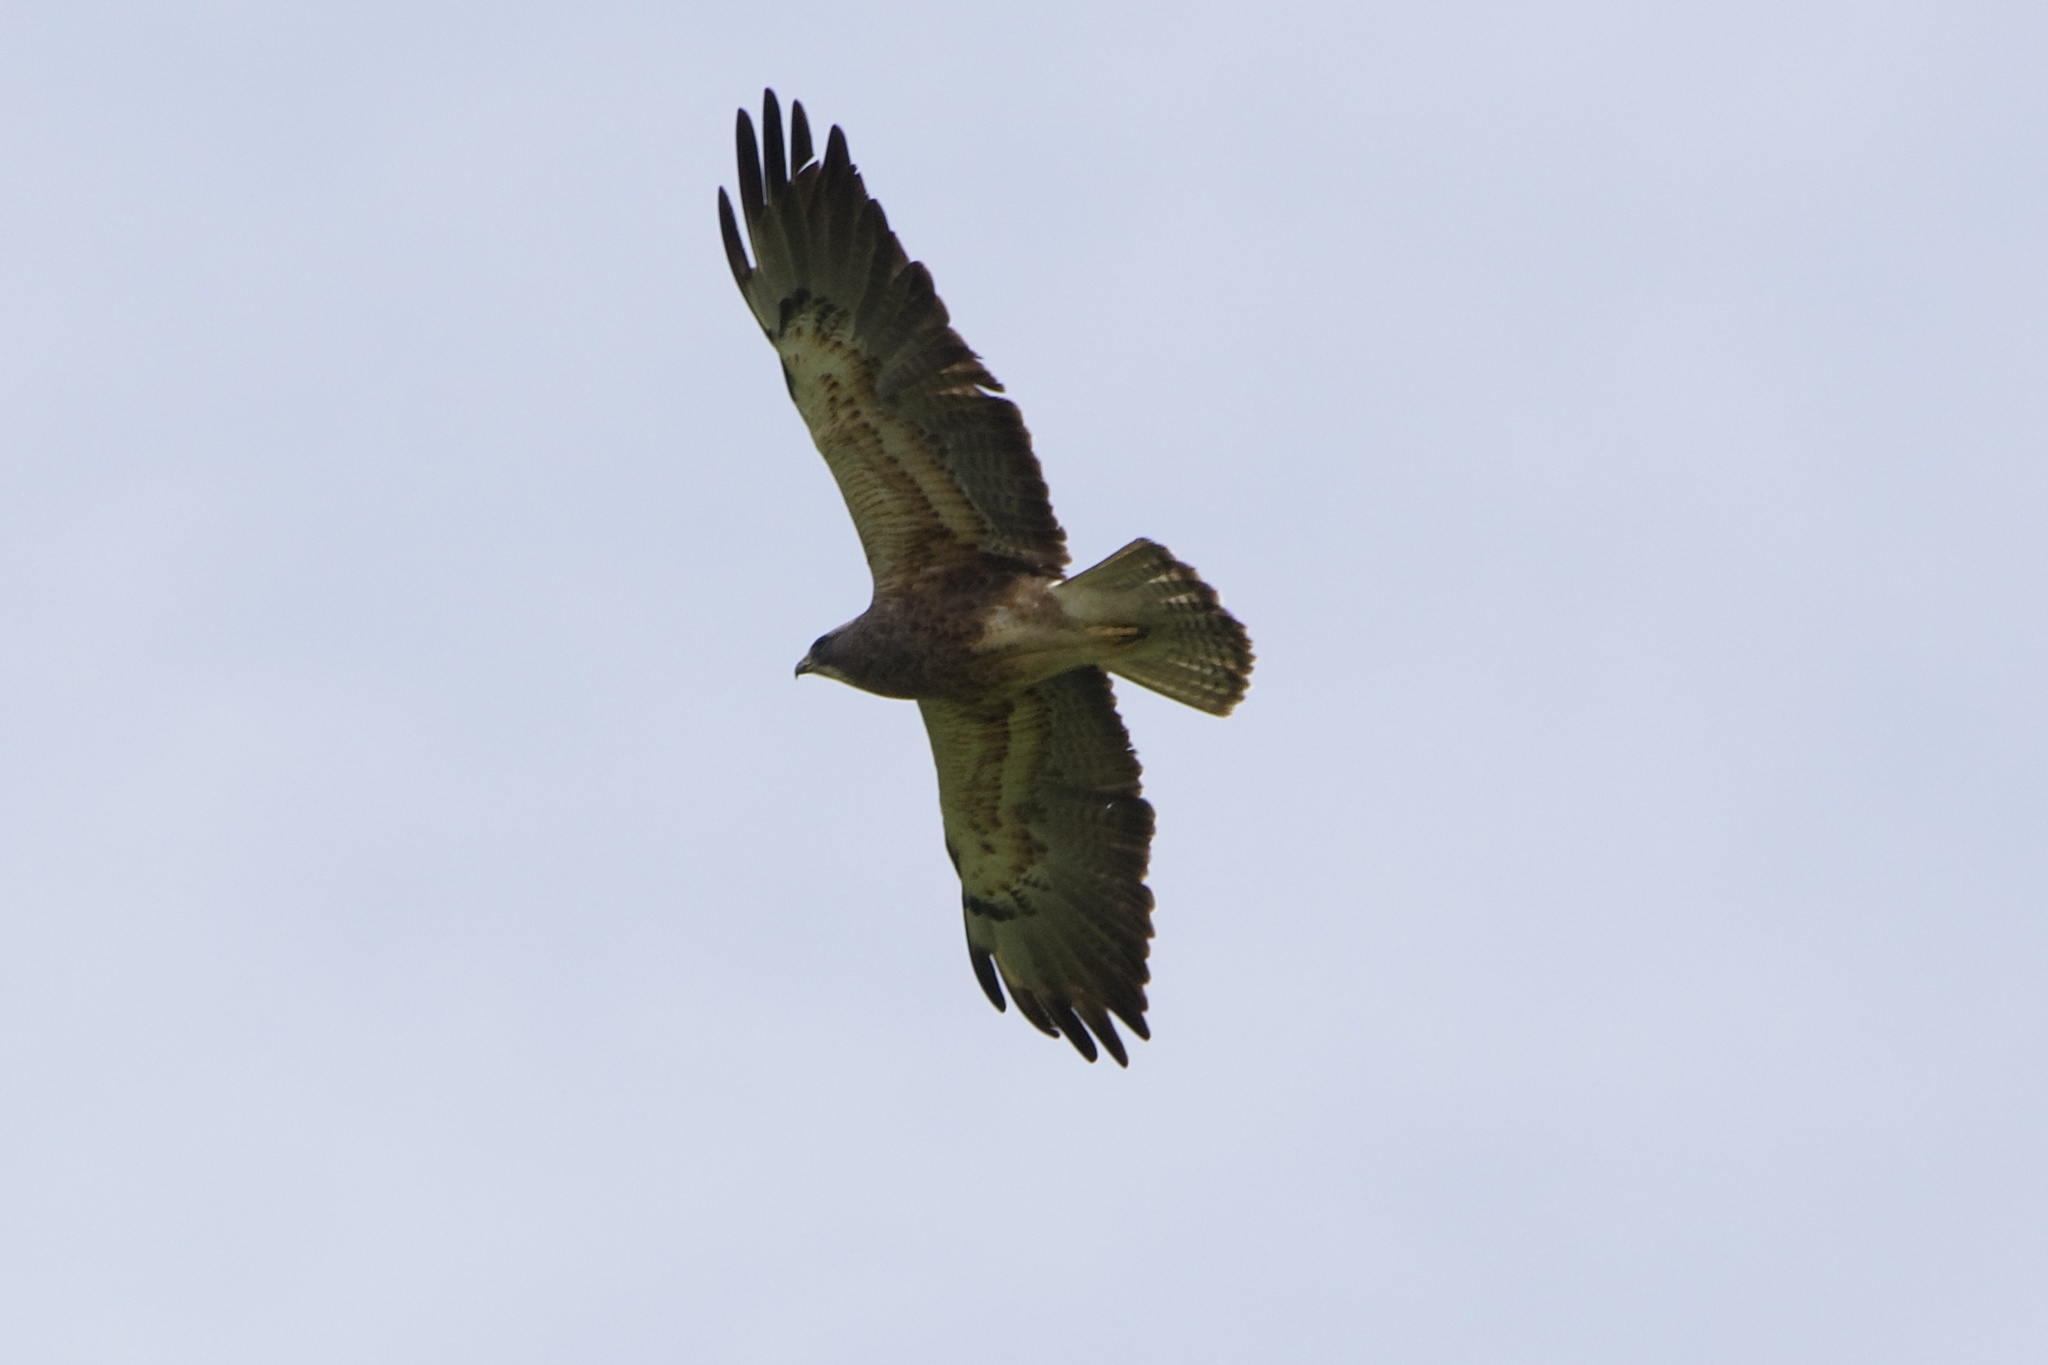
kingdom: Animalia
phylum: Chordata
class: Aves
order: Accipitriformes
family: Accipitridae
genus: Buteo
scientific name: Buteo swainsoni
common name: Swainson's hawk
